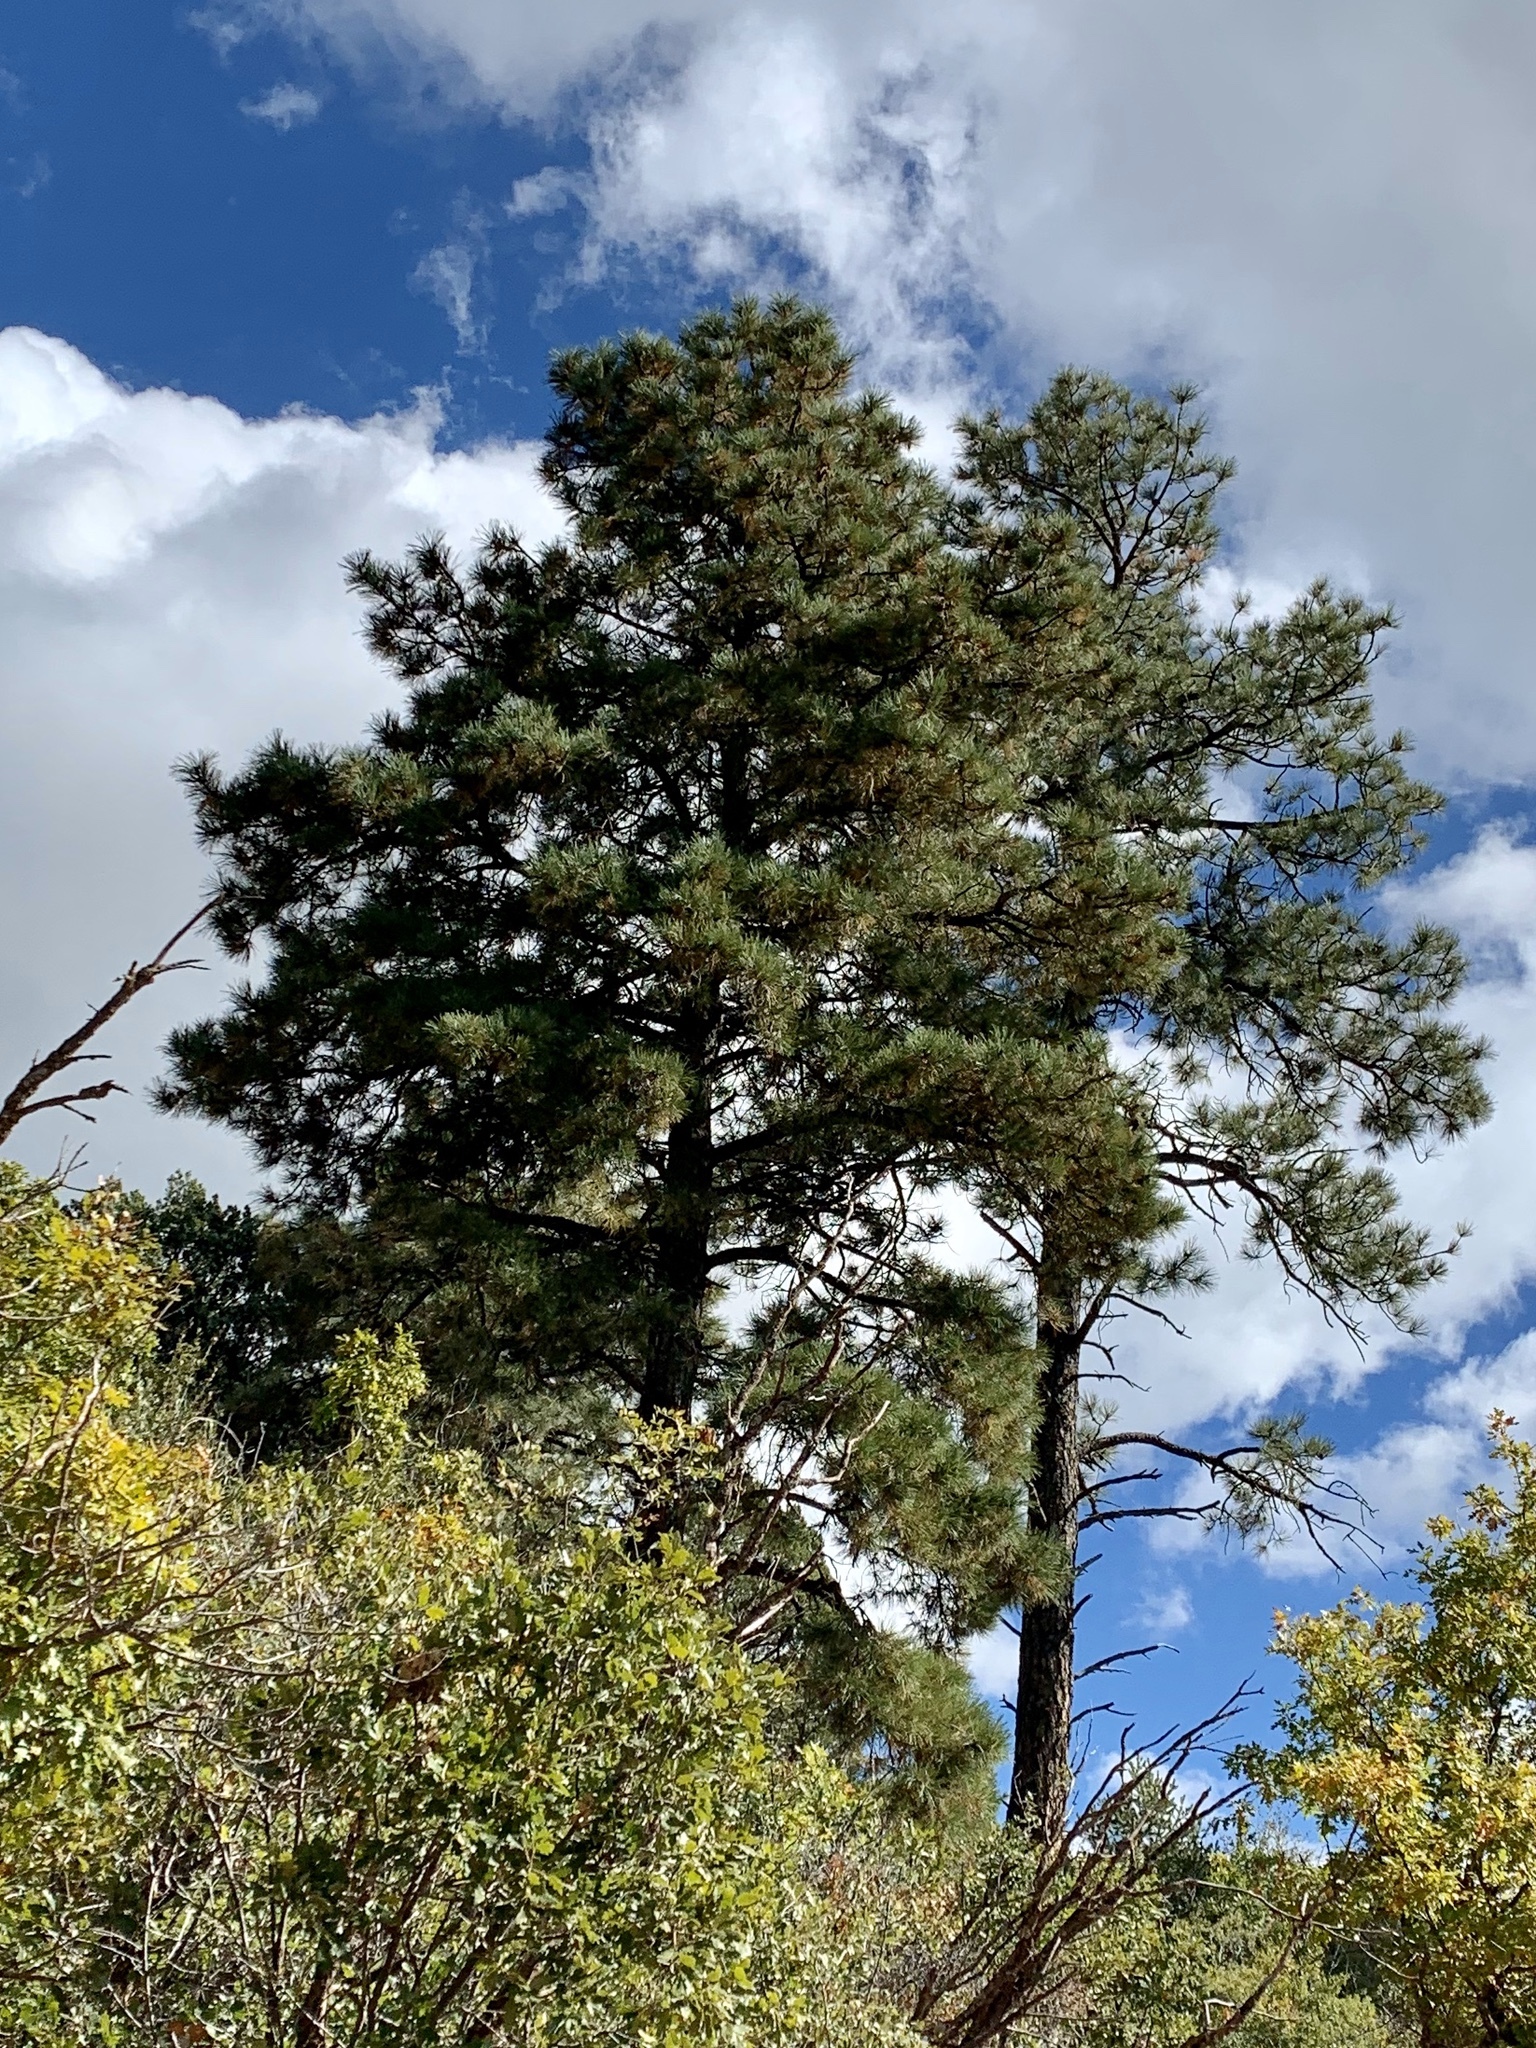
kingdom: Plantae
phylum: Tracheophyta
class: Pinopsida
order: Pinales
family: Pinaceae
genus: Pinus
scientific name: Pinus ponderosa
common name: Western yellow-pine
